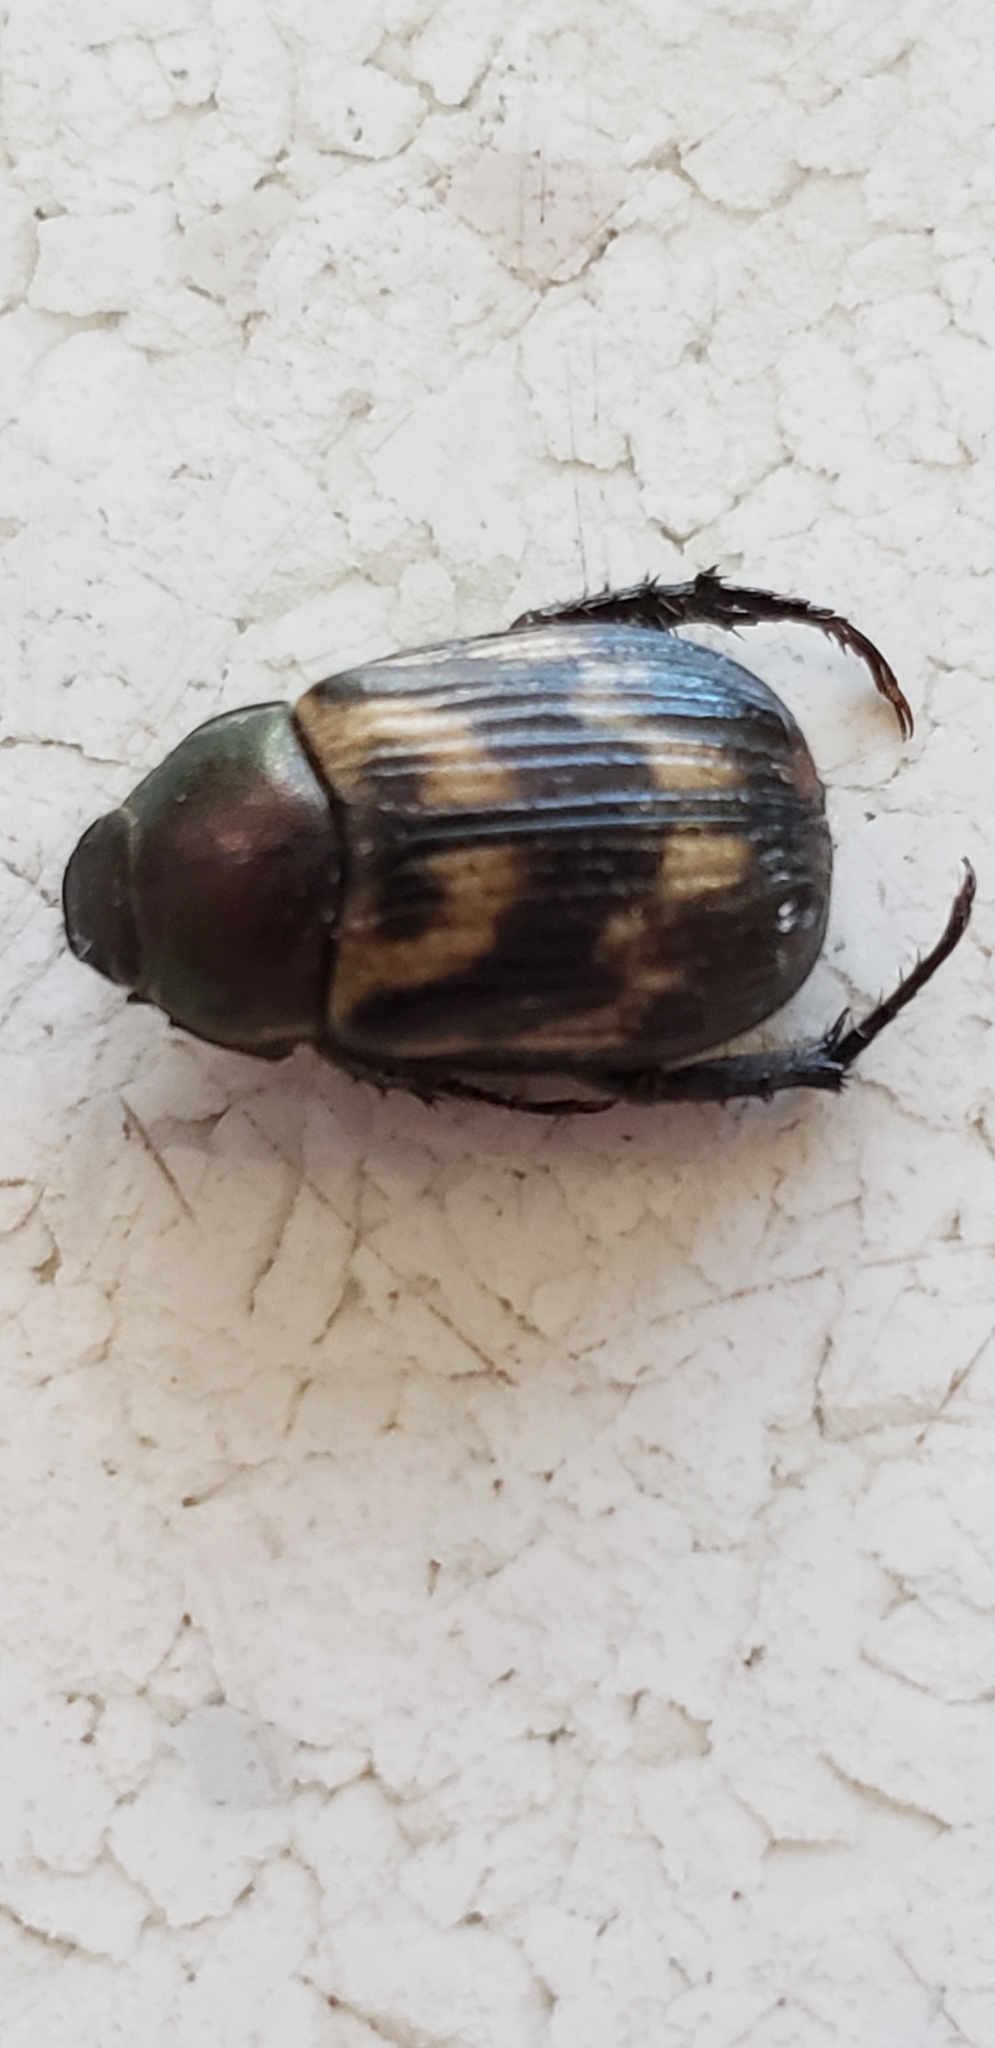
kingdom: Animalia
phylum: Arthropoda
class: Insecta
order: Coleoptera
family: Scarabaeidae
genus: Exomala
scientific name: Exomala orientalis
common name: Oriental beetle
